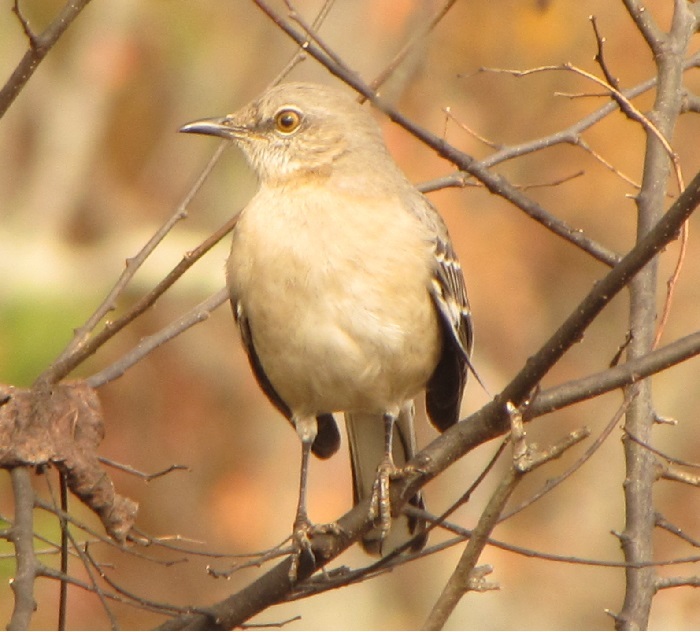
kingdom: Animalia
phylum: Chordata
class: Aves
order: Passeriformes
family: Mimidae
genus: Mimus
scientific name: Mimus polyglottos
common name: Northern mockingbird
